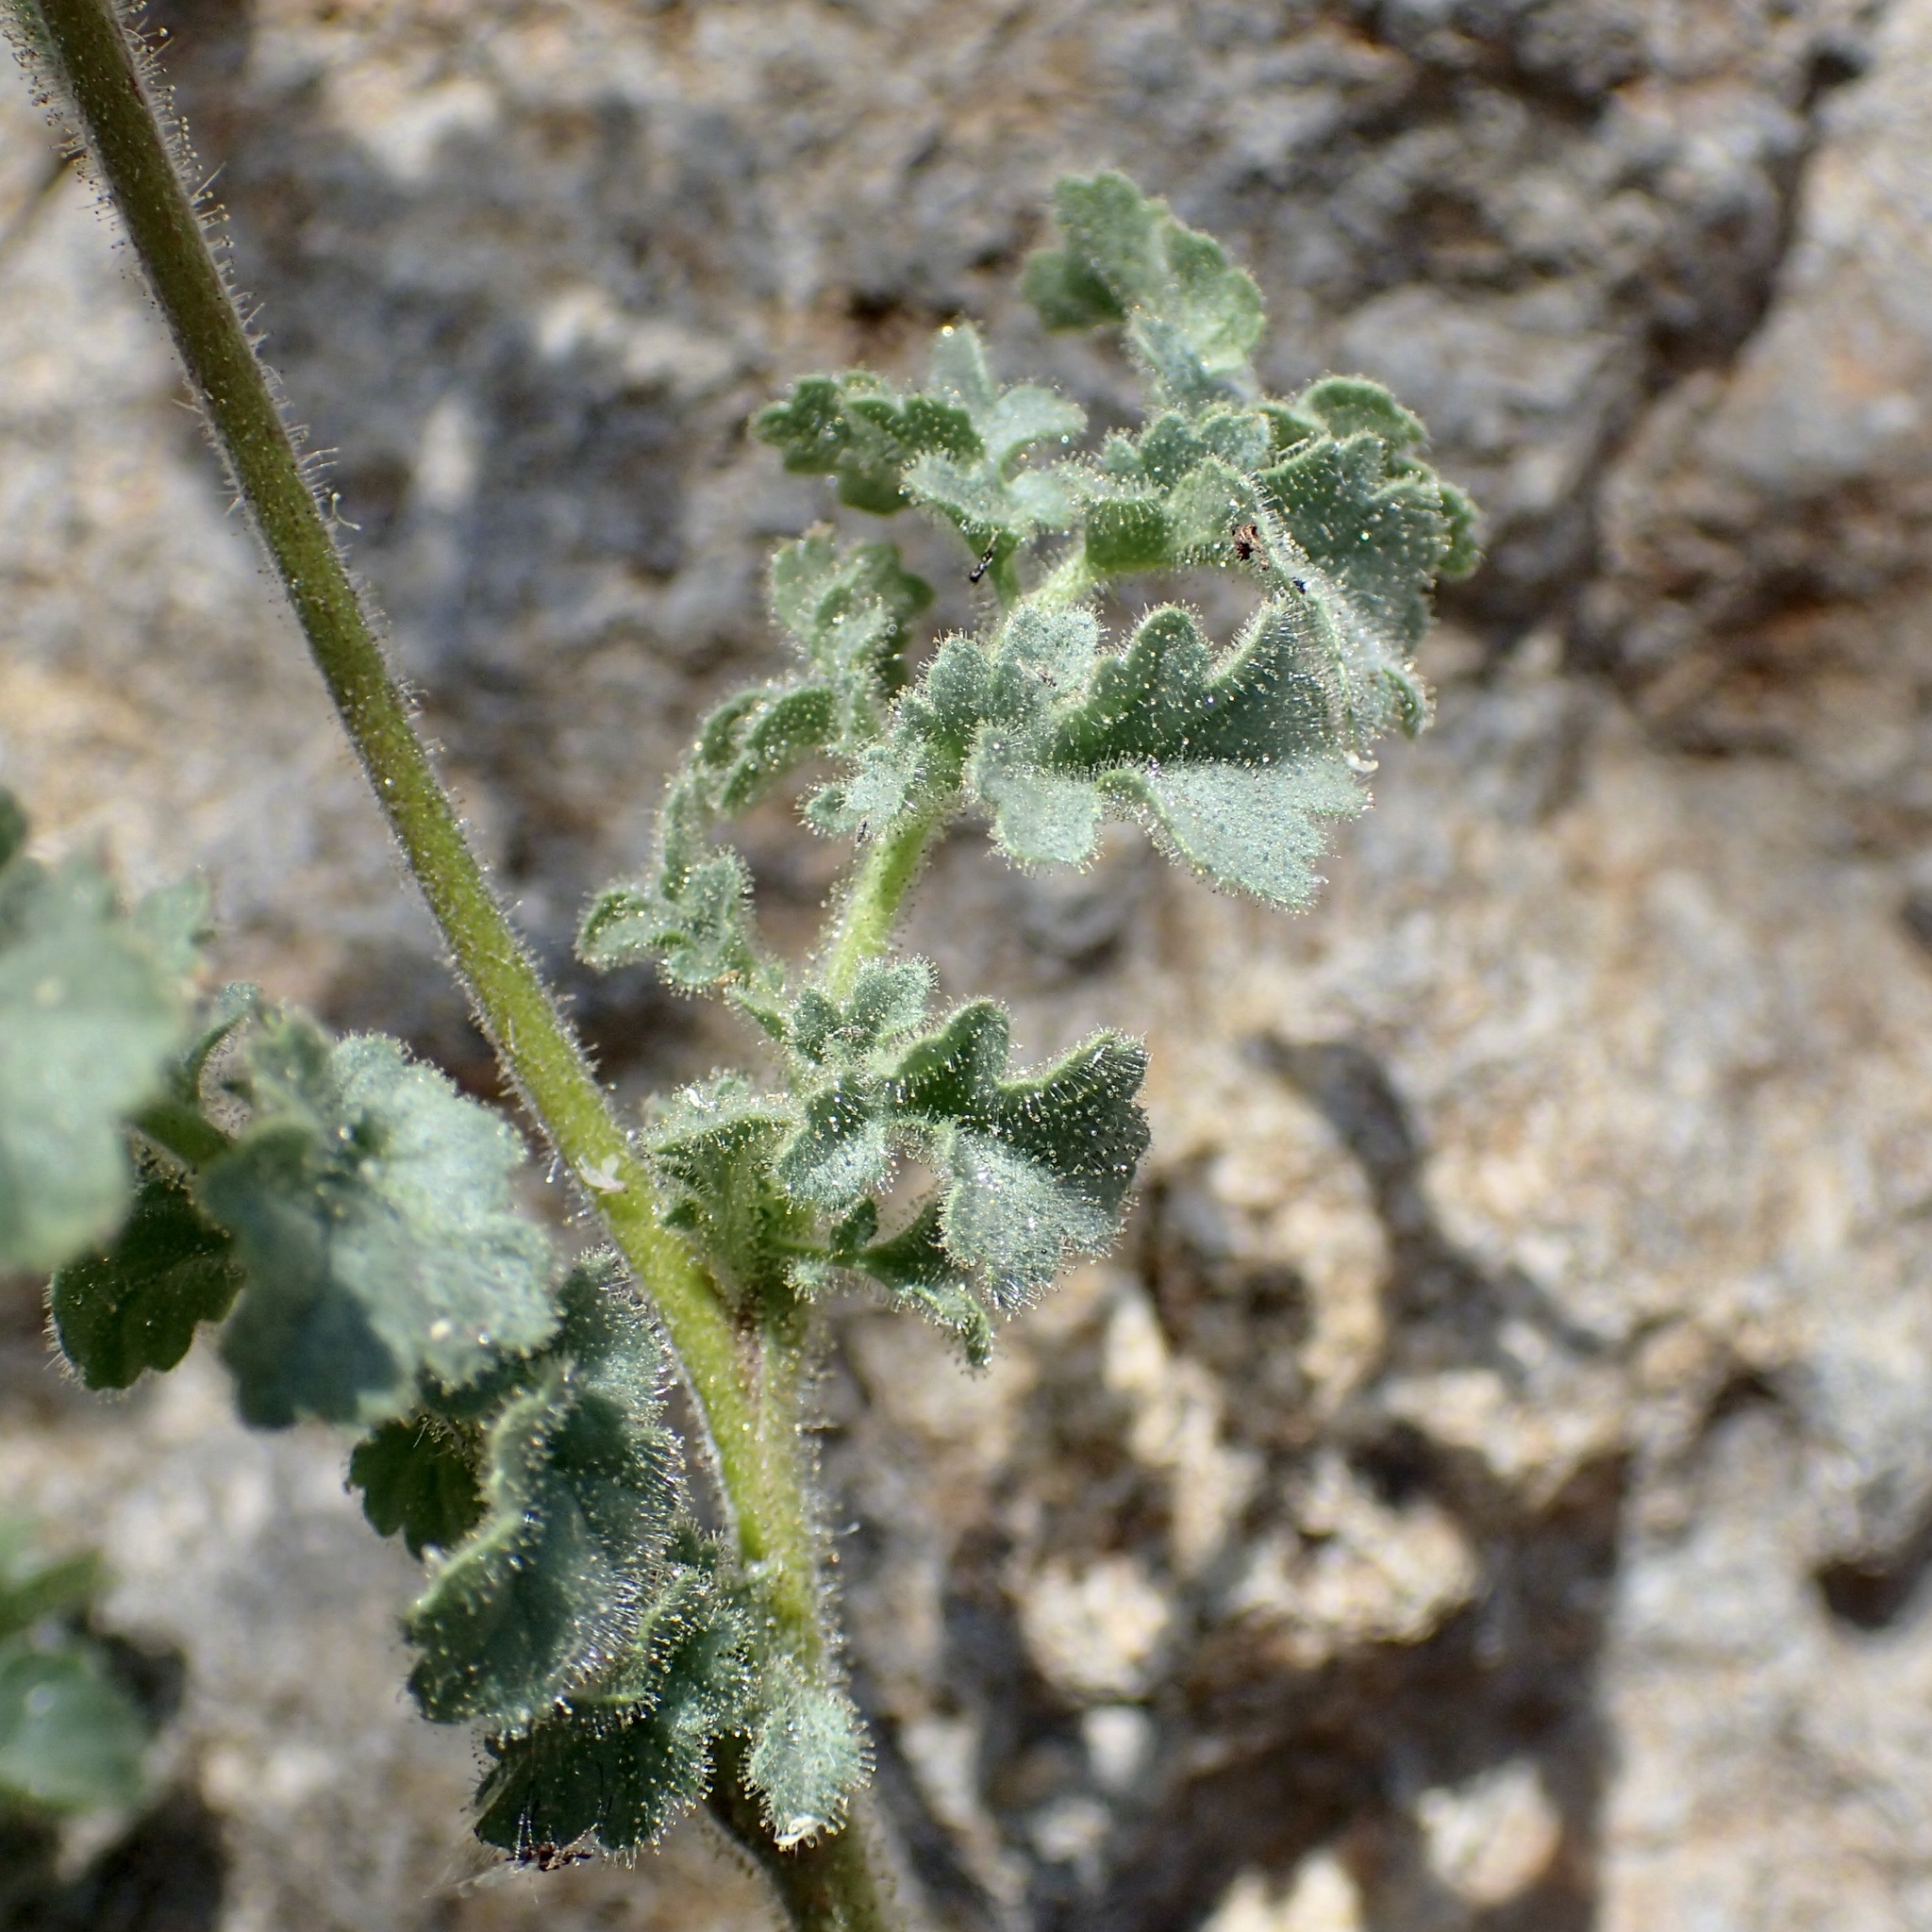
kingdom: Plantae
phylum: Tracheophyta
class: Magnoliopsida
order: Boraginales
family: Hydrophyllaceae
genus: Phacelia
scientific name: Phacelia sonoitensis
